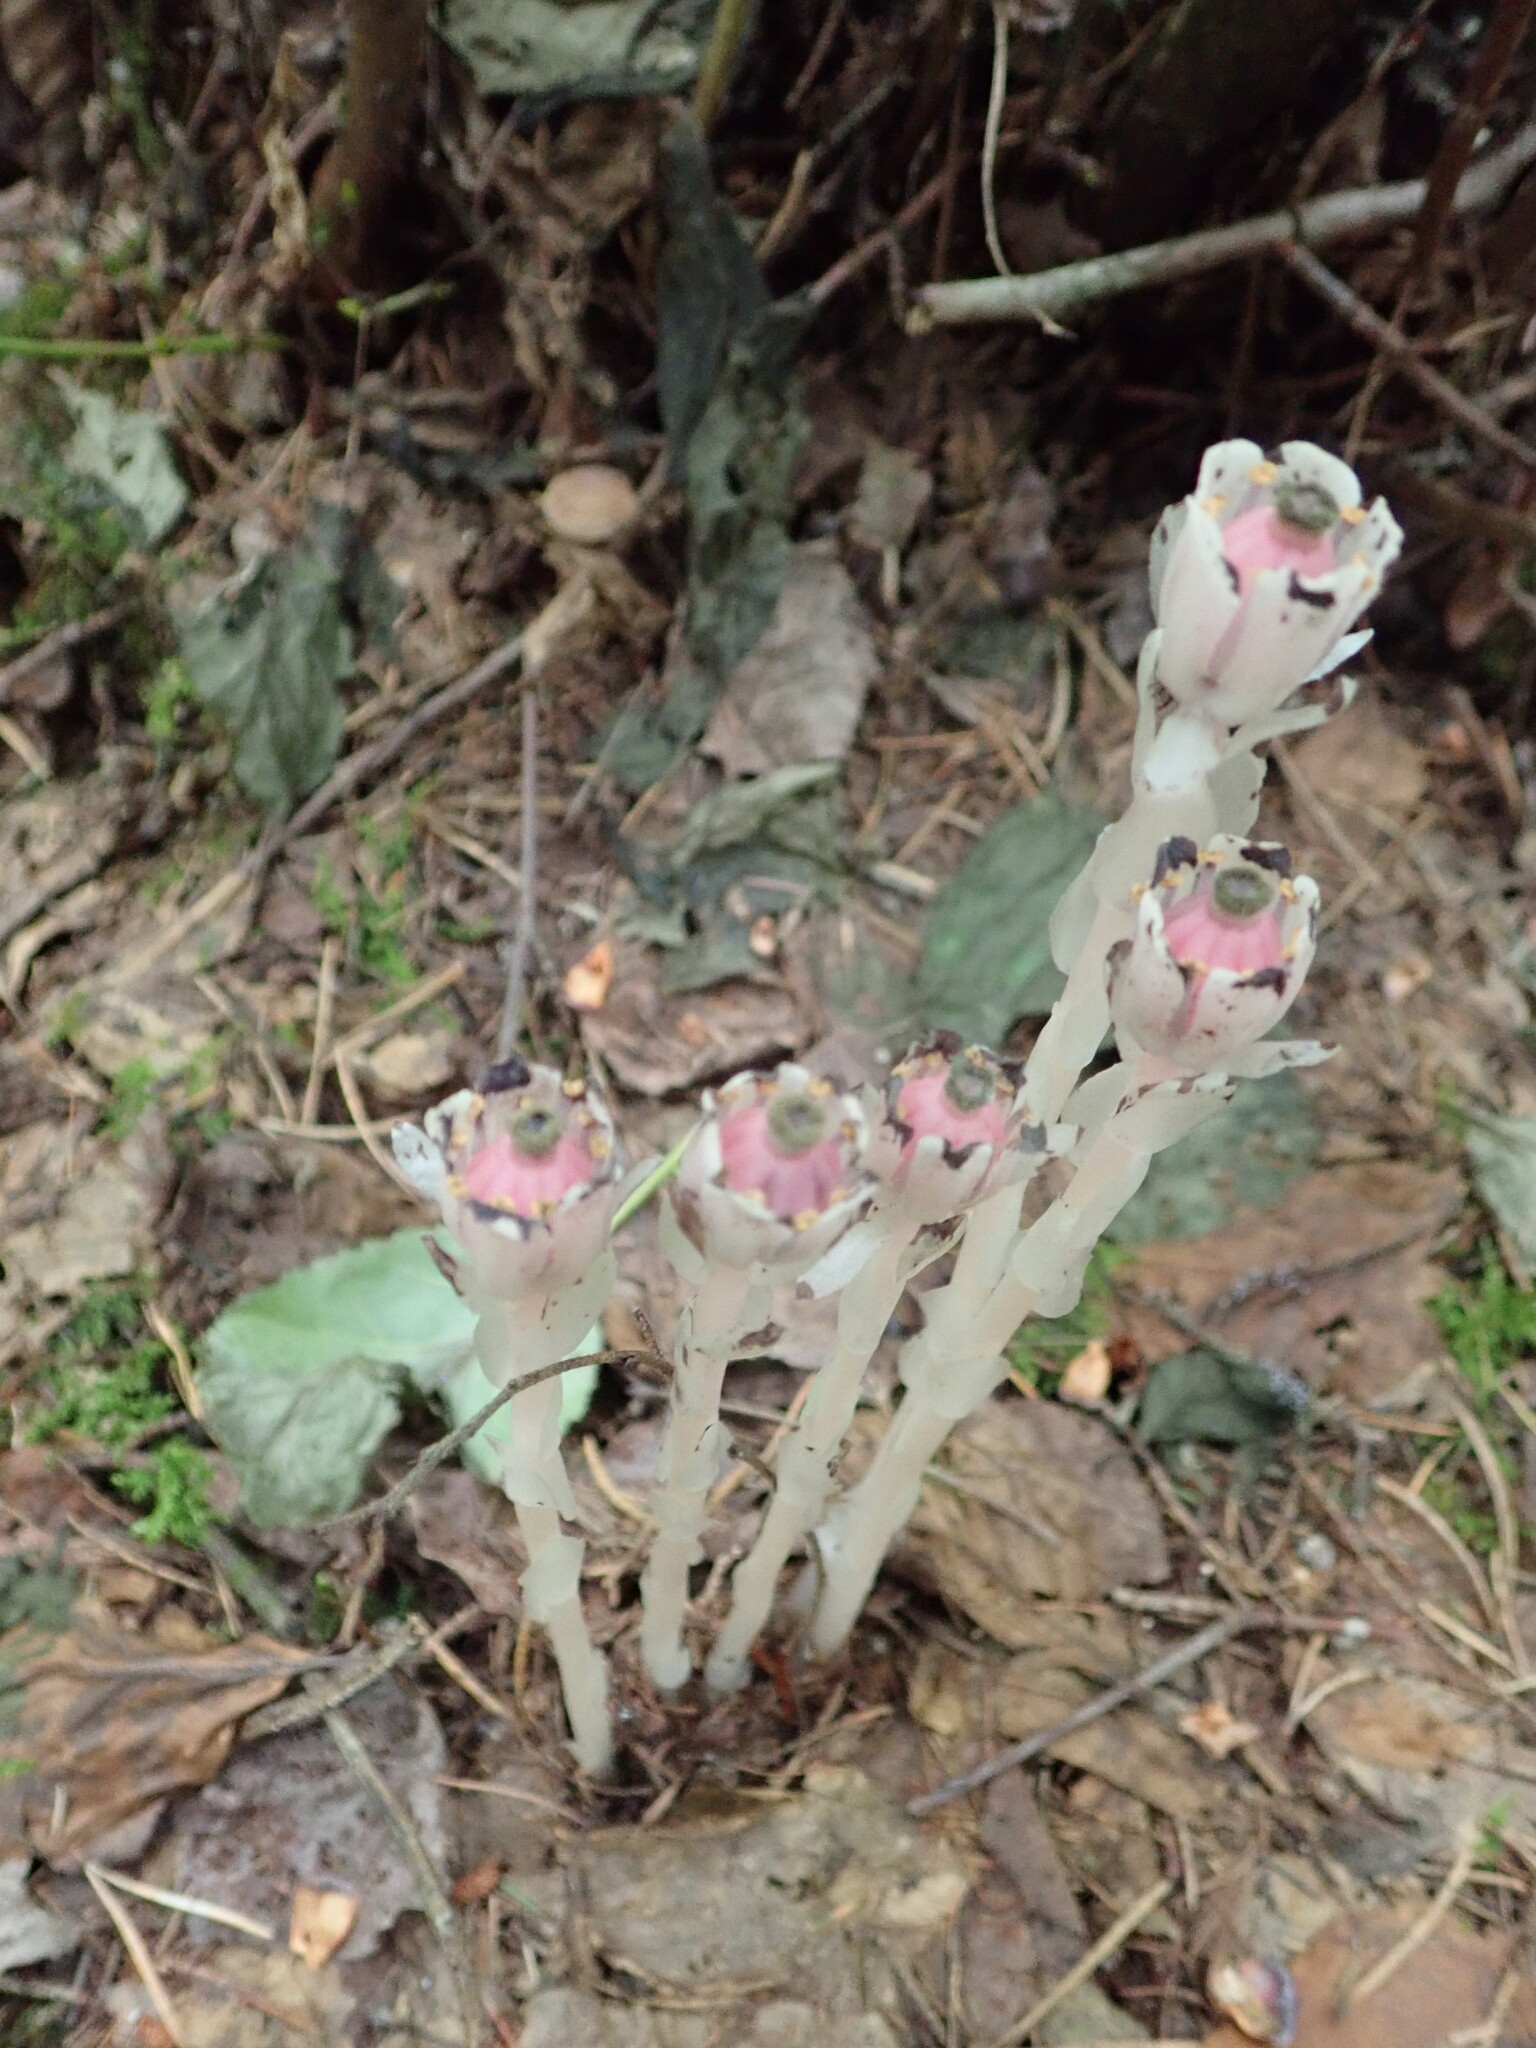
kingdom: Plantae
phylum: Tracheophyta
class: Magnoliopsida
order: Ericales
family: Ericaceae
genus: Monotropa
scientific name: Monotropa uniflora
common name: Convulsion root
